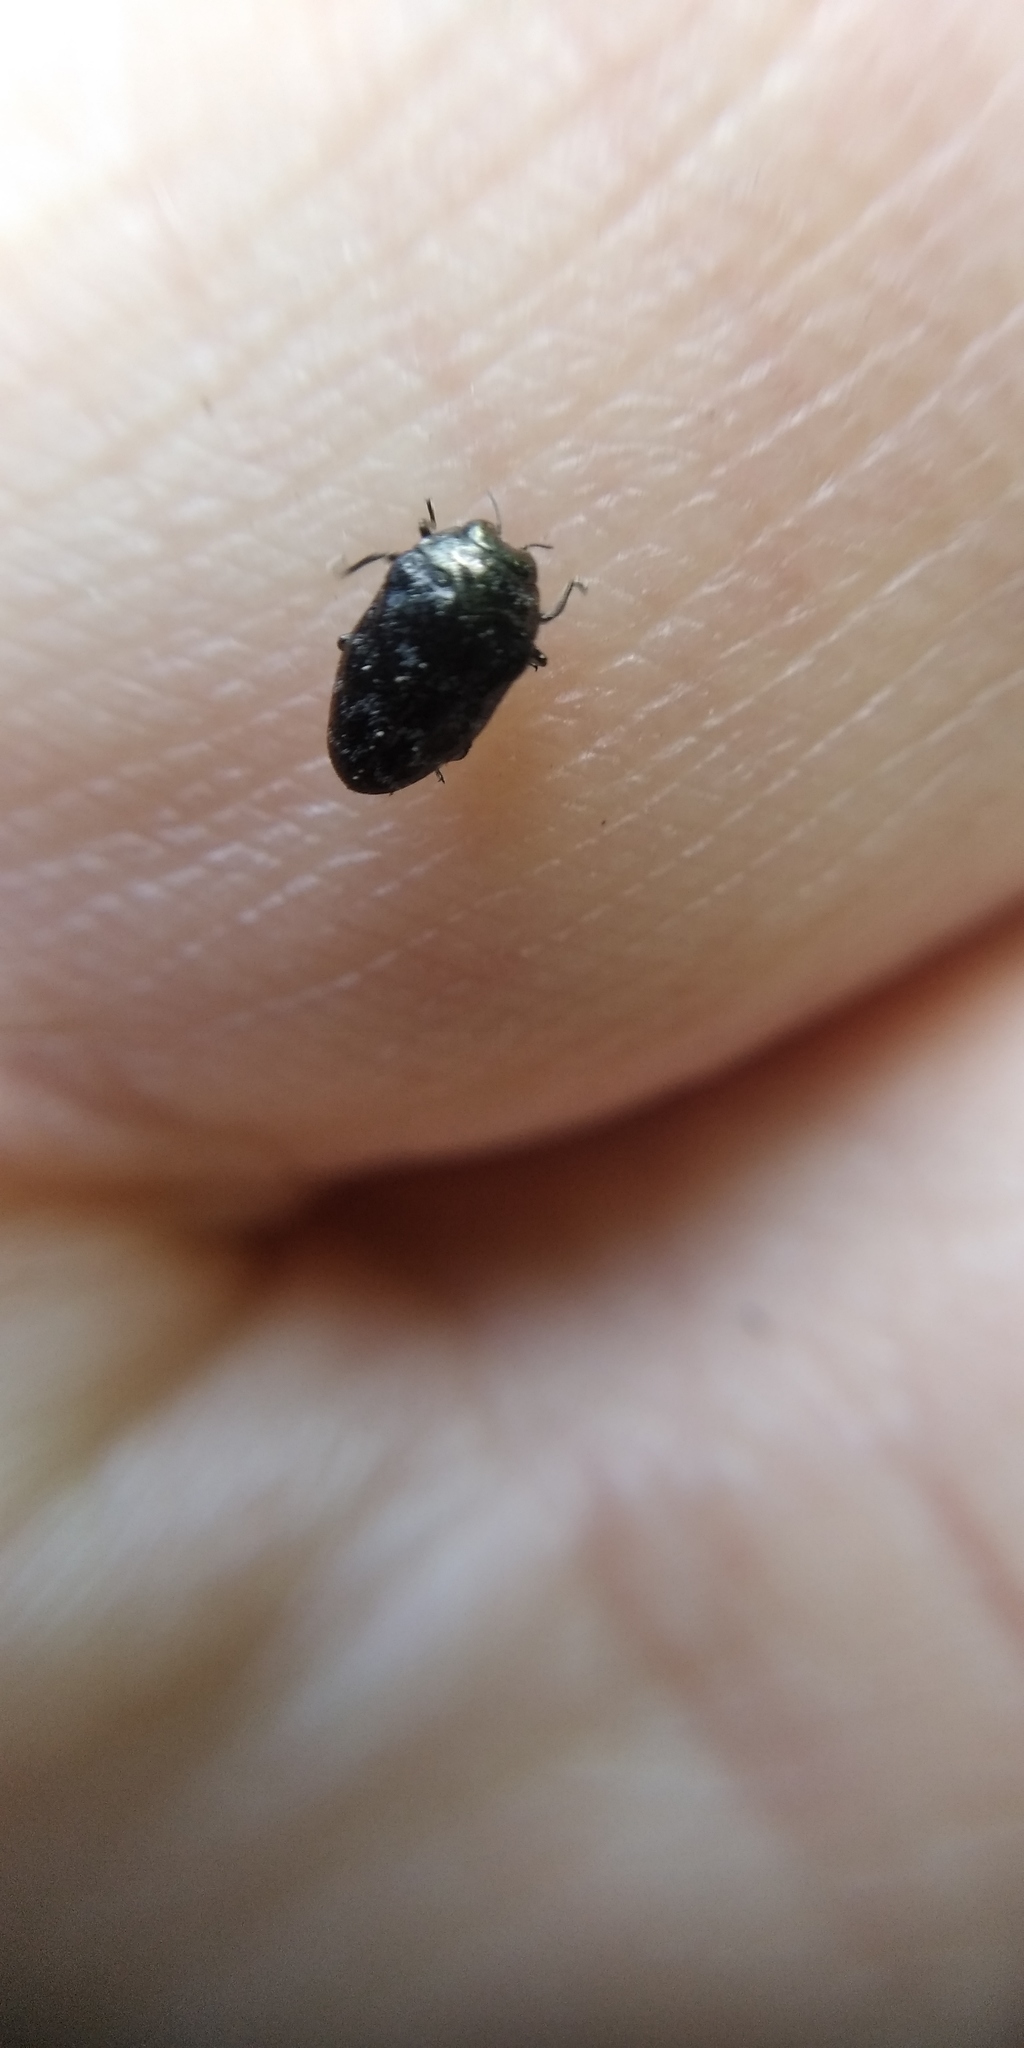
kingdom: Animalia
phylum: Arthropoda
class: Insecta
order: Coleoptera
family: Buprestidae
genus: Trachys
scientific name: Trachys minutus
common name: Metallic wood-boring beetle
